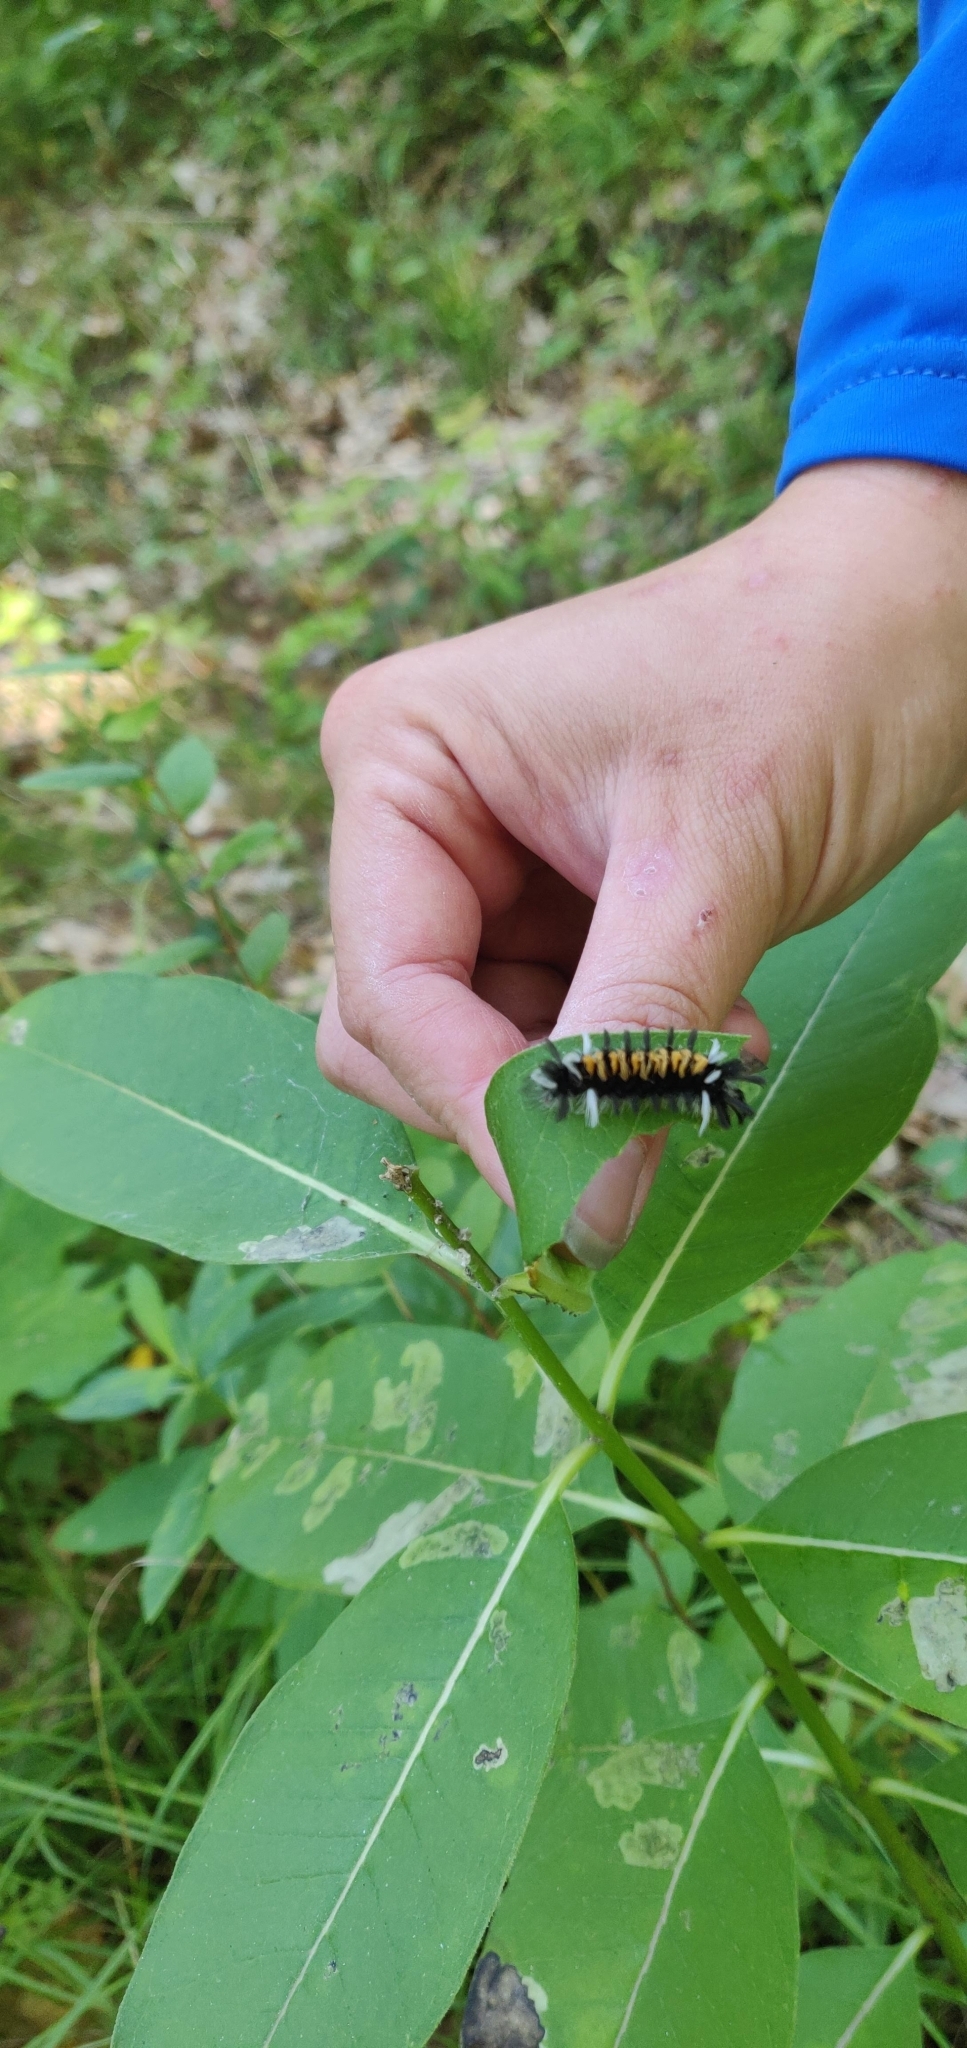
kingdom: Animalia
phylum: Arthropoda
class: Insecta
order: Lepidoptera
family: Erebidae
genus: Euchaetes
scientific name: Euchaetes egle
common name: Milkweed tussock moth
